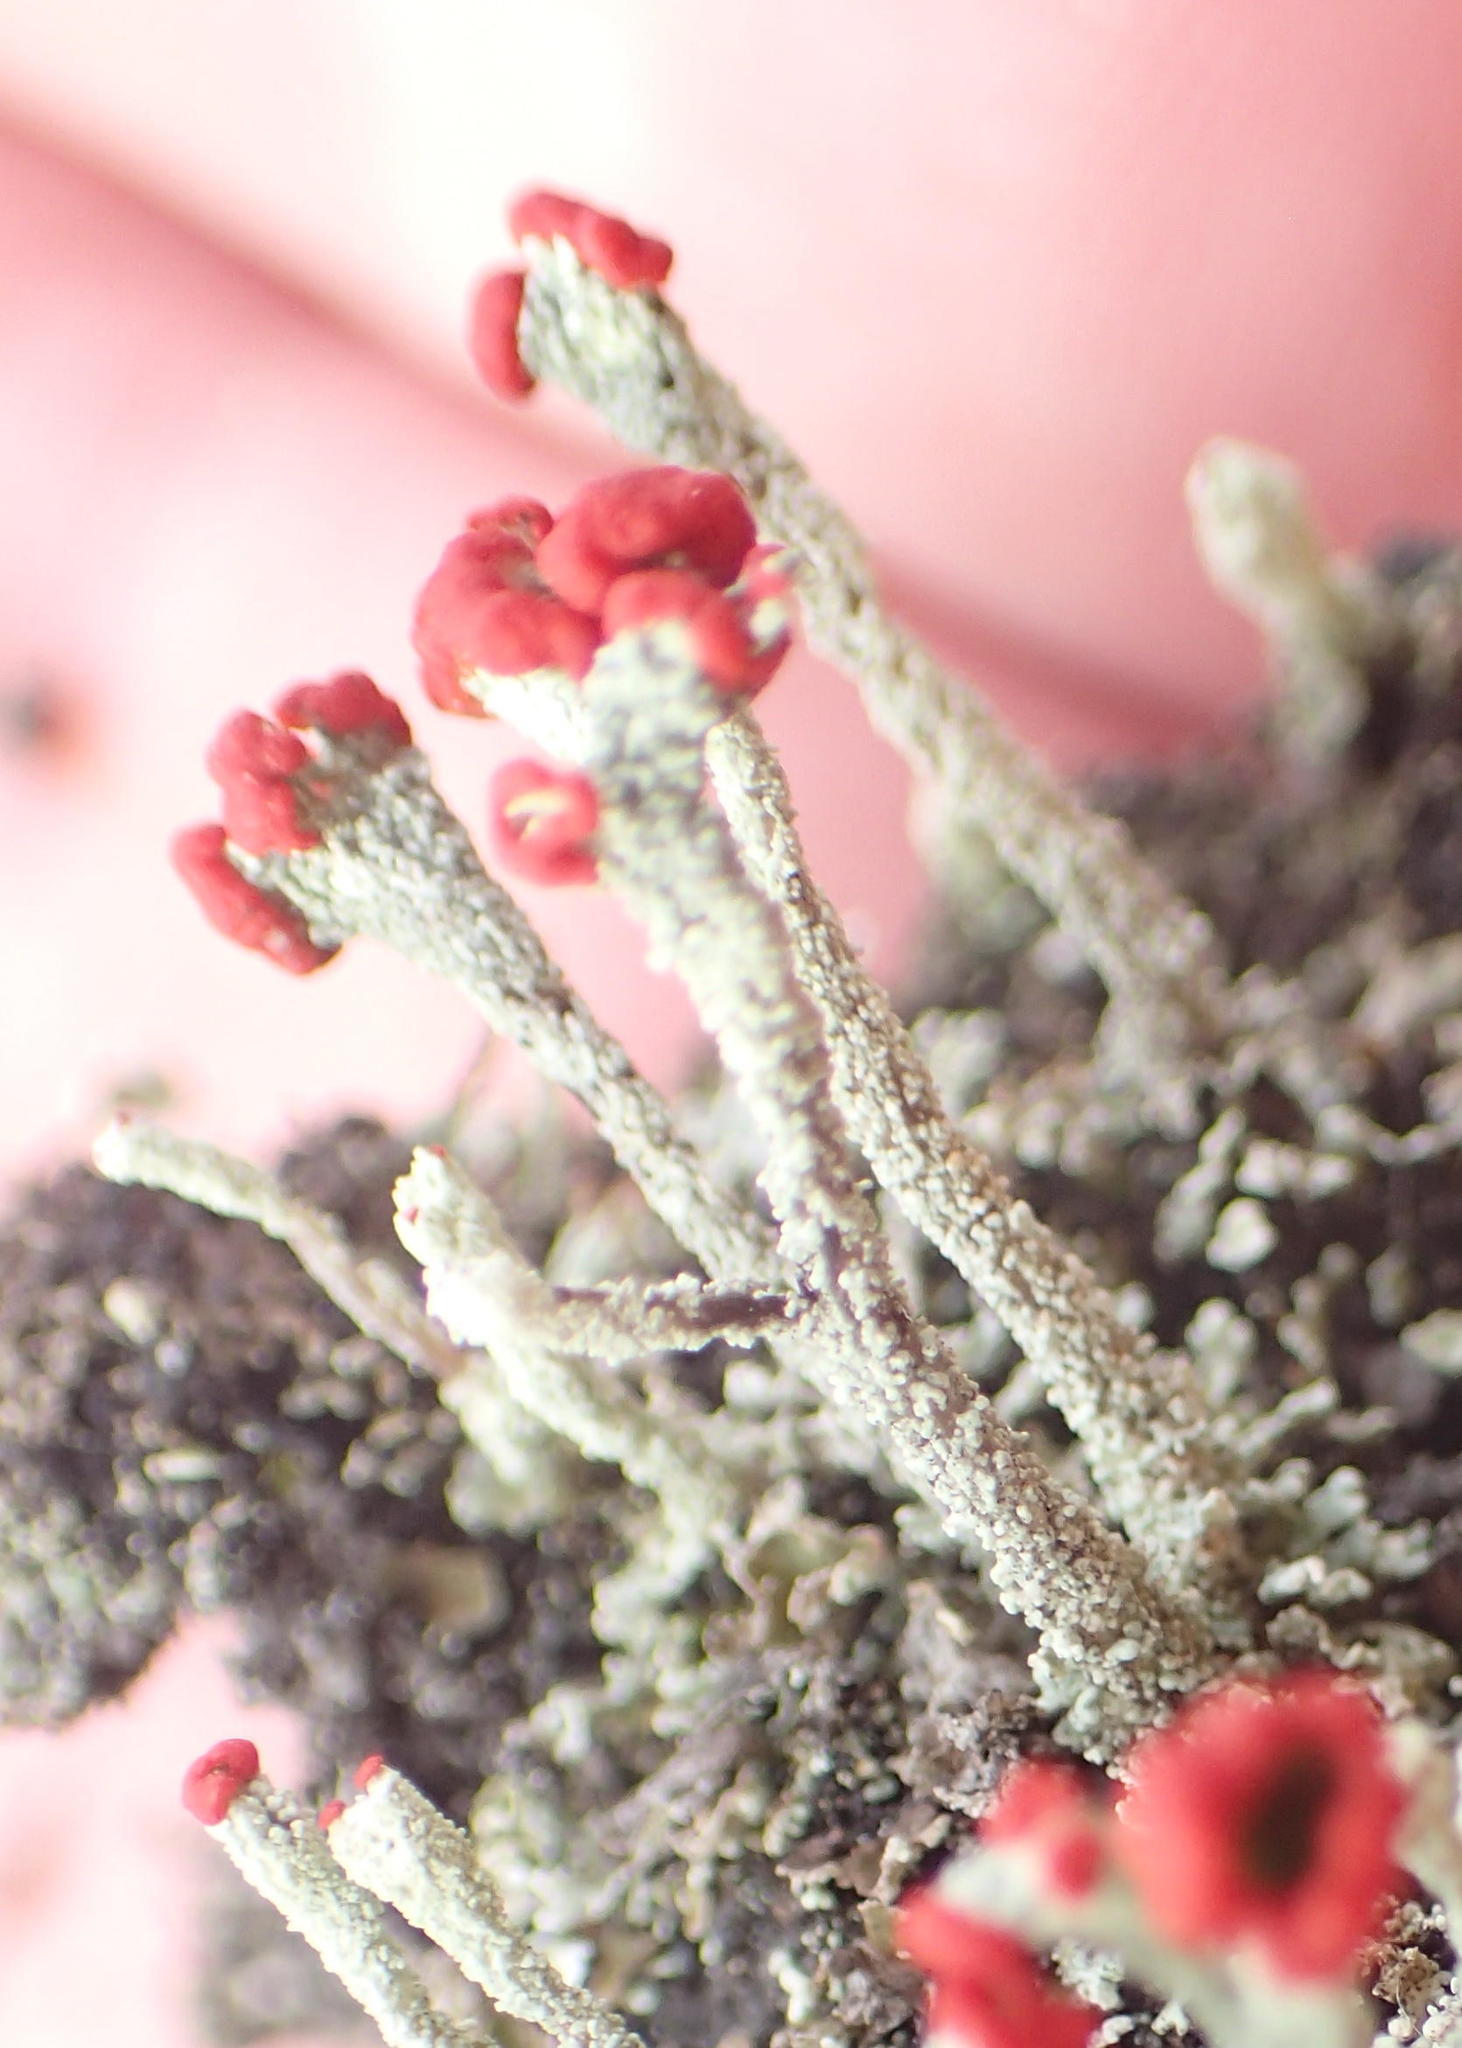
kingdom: Fungi
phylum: Ascomycota
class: Lecanoromycetes
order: Lecanorales
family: Cladoniaceae
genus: Cladonia
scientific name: Cladonia floerkeana
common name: Gritty british soldiers lichen
